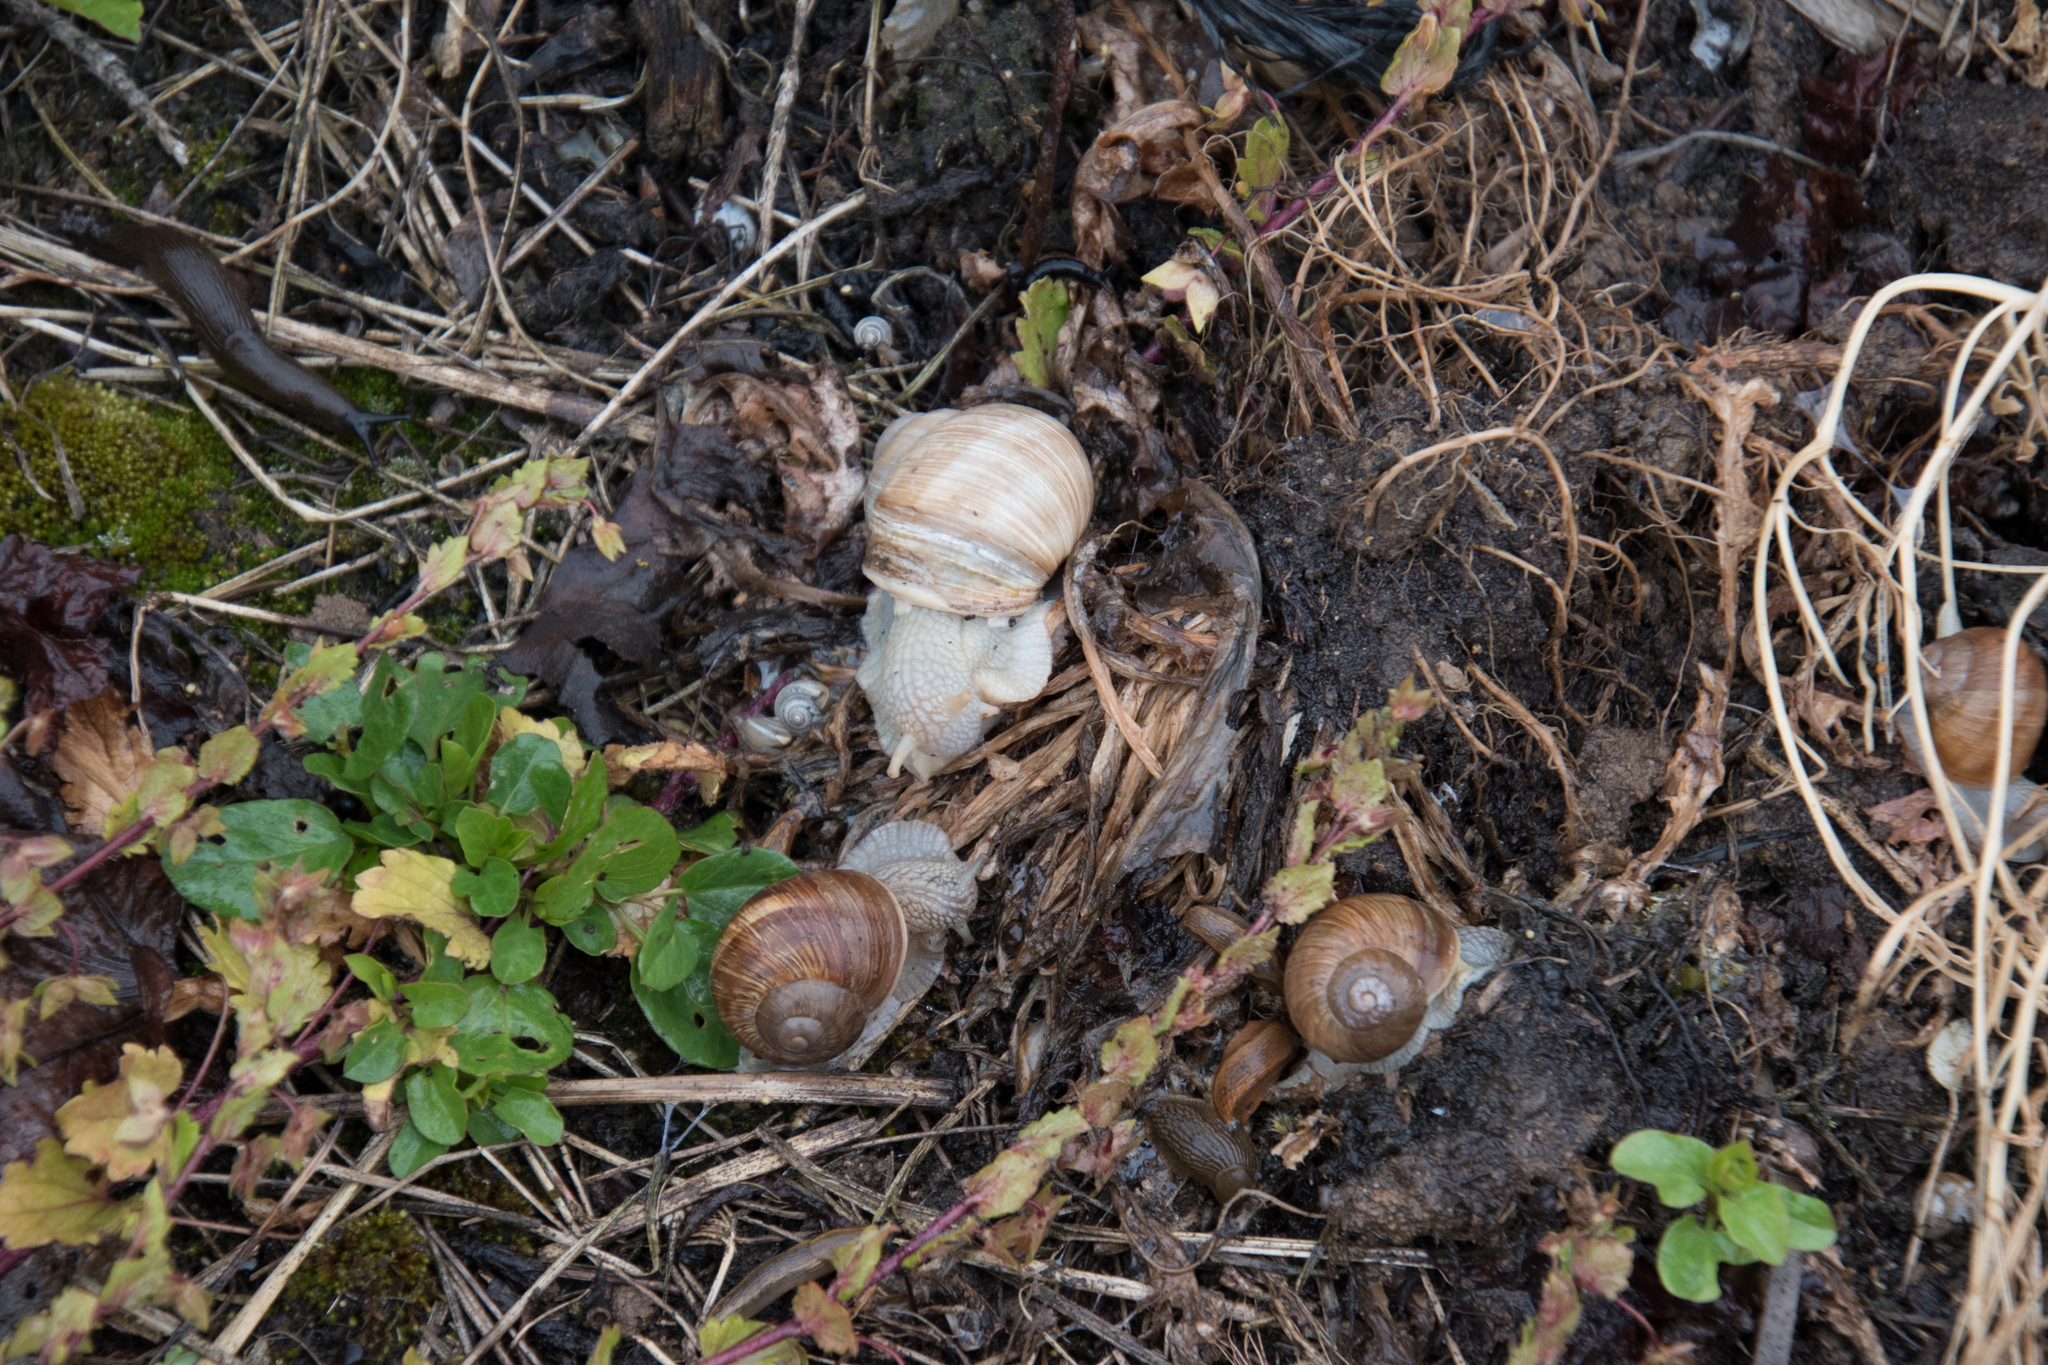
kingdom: Animalia
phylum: Mollusca
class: Gastropoda
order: Stylommatophora
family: Helicidae
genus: Helix
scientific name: Helix pomatia
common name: Roman snail
